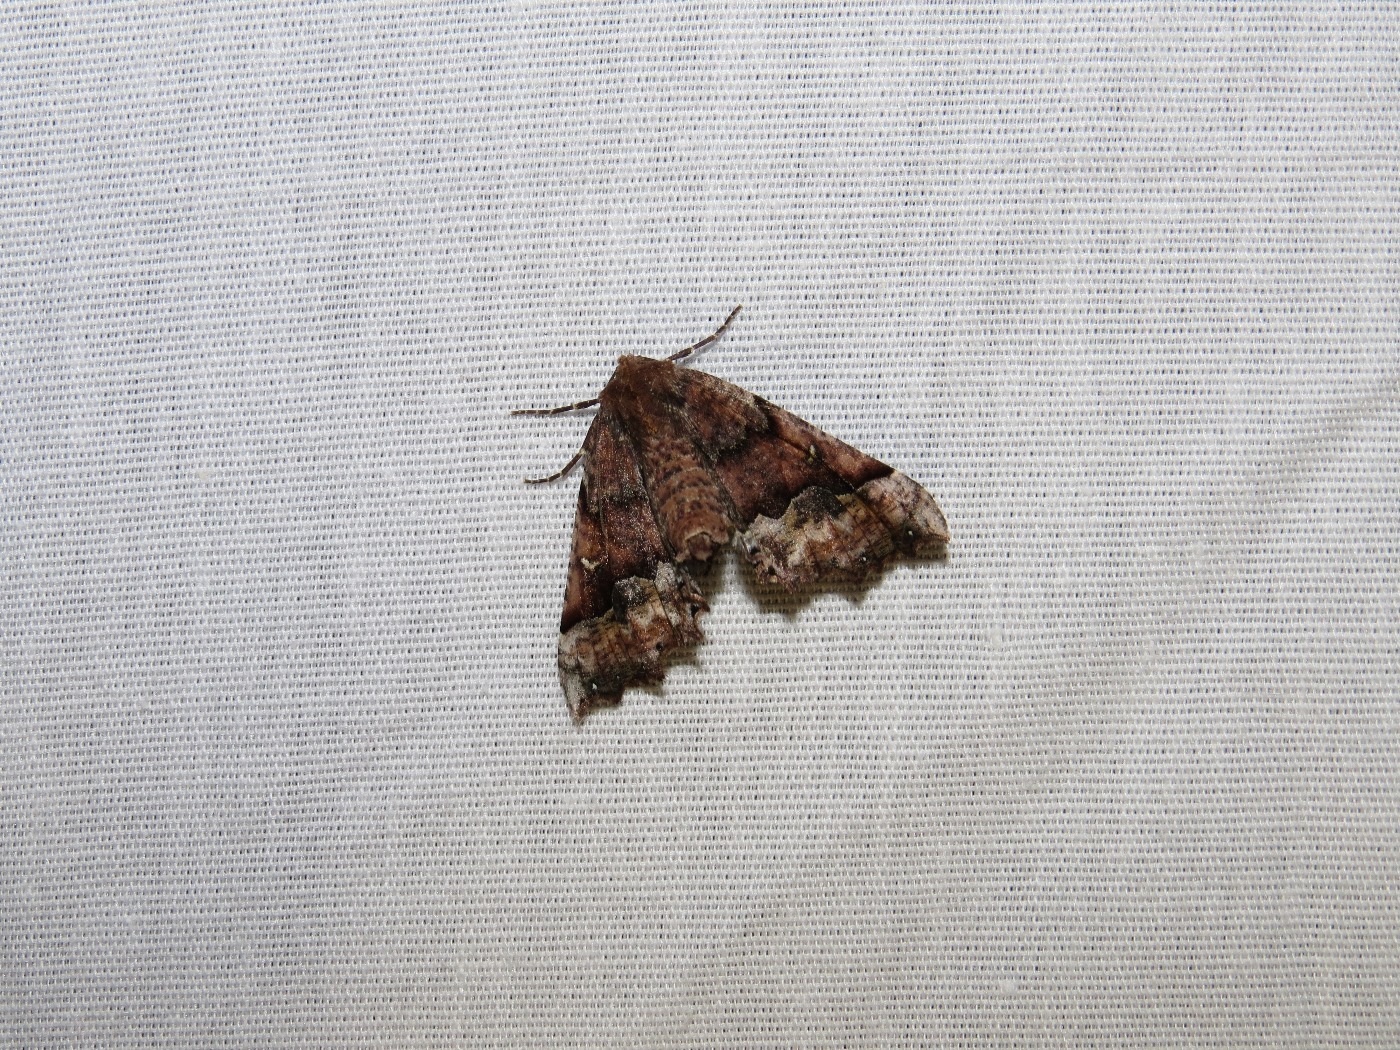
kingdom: Animalia
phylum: Arthropoda
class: Insecta
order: Lepidoptera
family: Geometridae
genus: Pero
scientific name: Pero morrisonaria
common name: Morrison's pero
